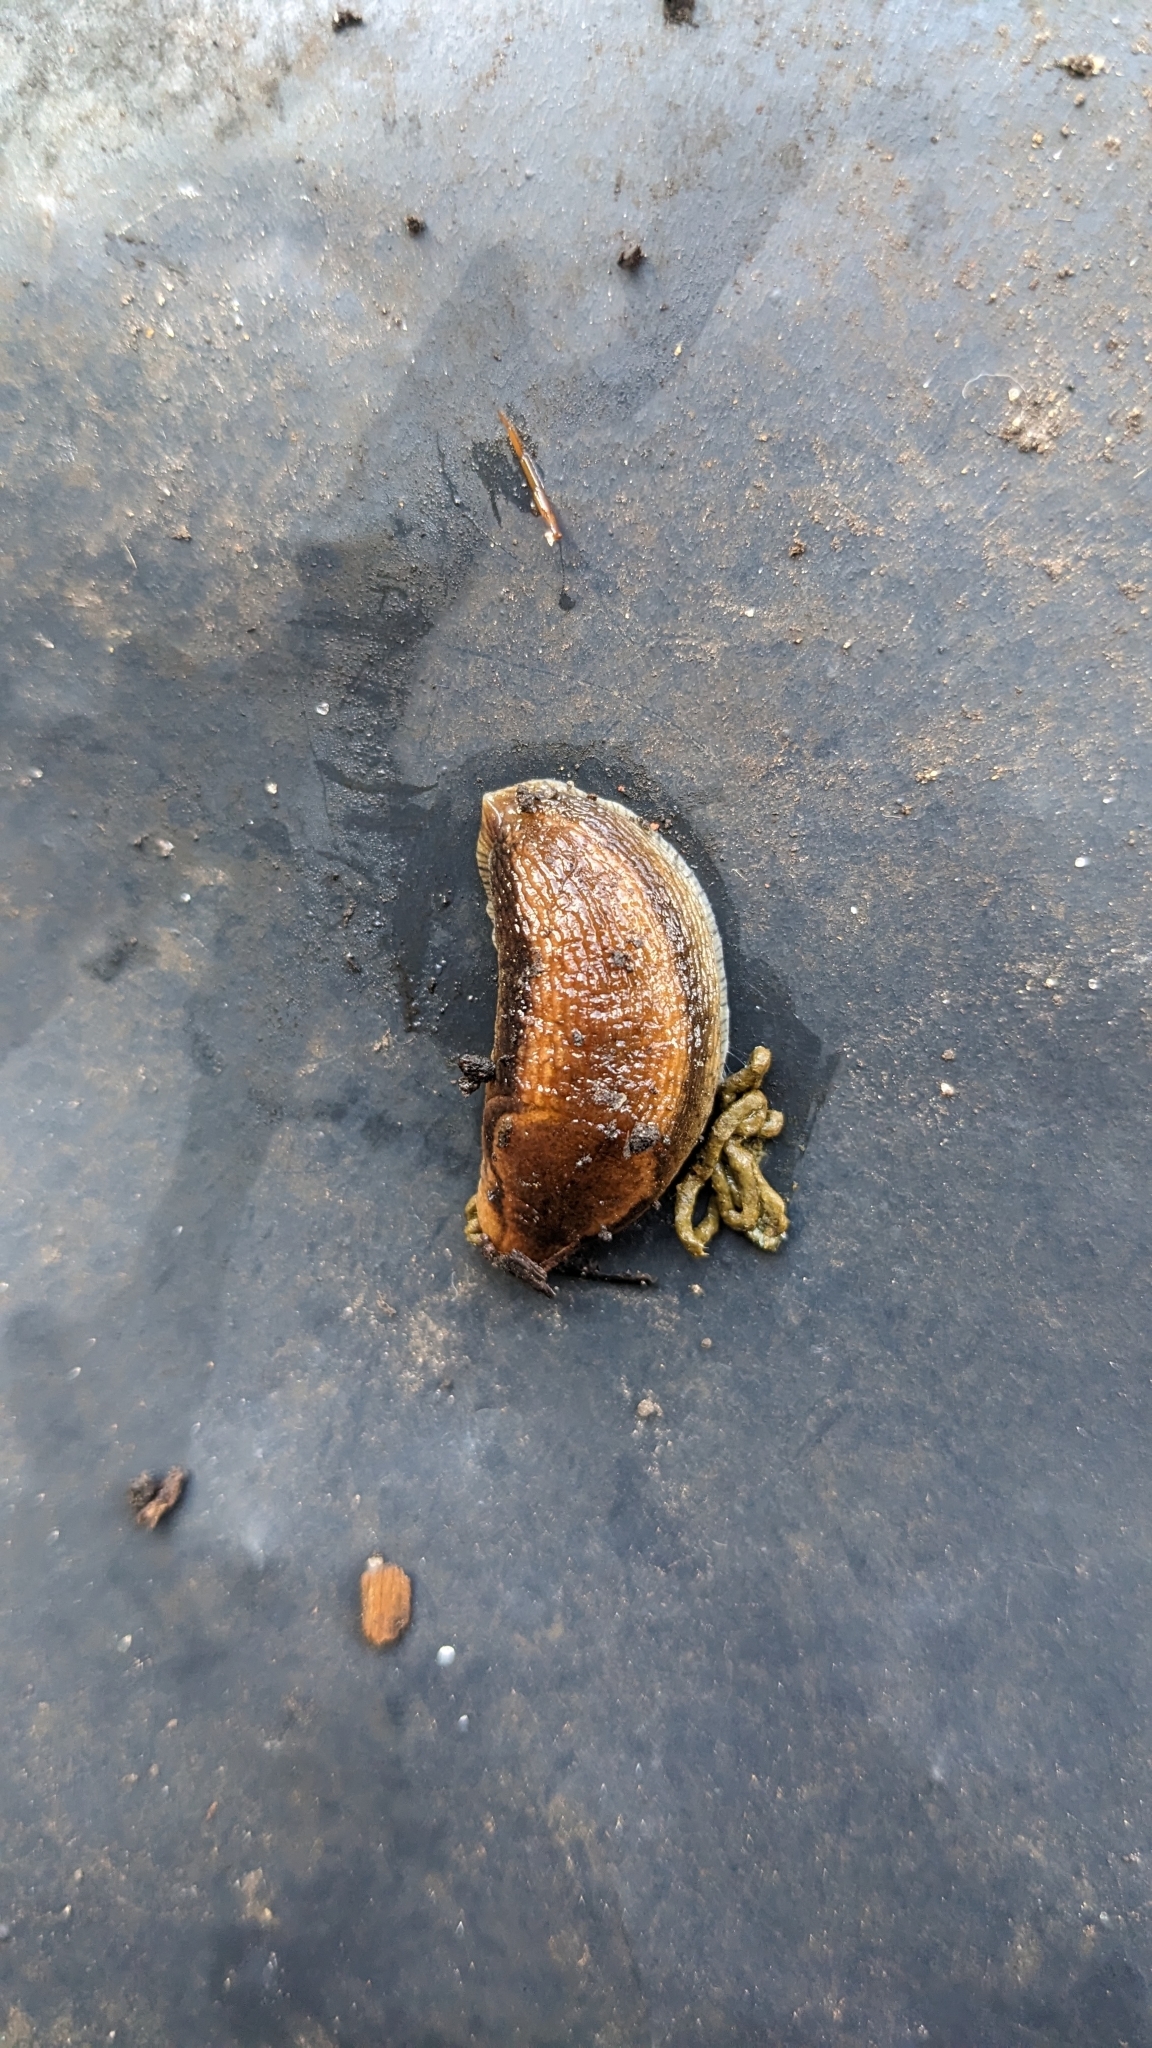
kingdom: Animalia
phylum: Mollusca
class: Gastropoda
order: Stylommatophora
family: Arionidae
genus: Arion
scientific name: Arion subfuscus
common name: Dusky arion
